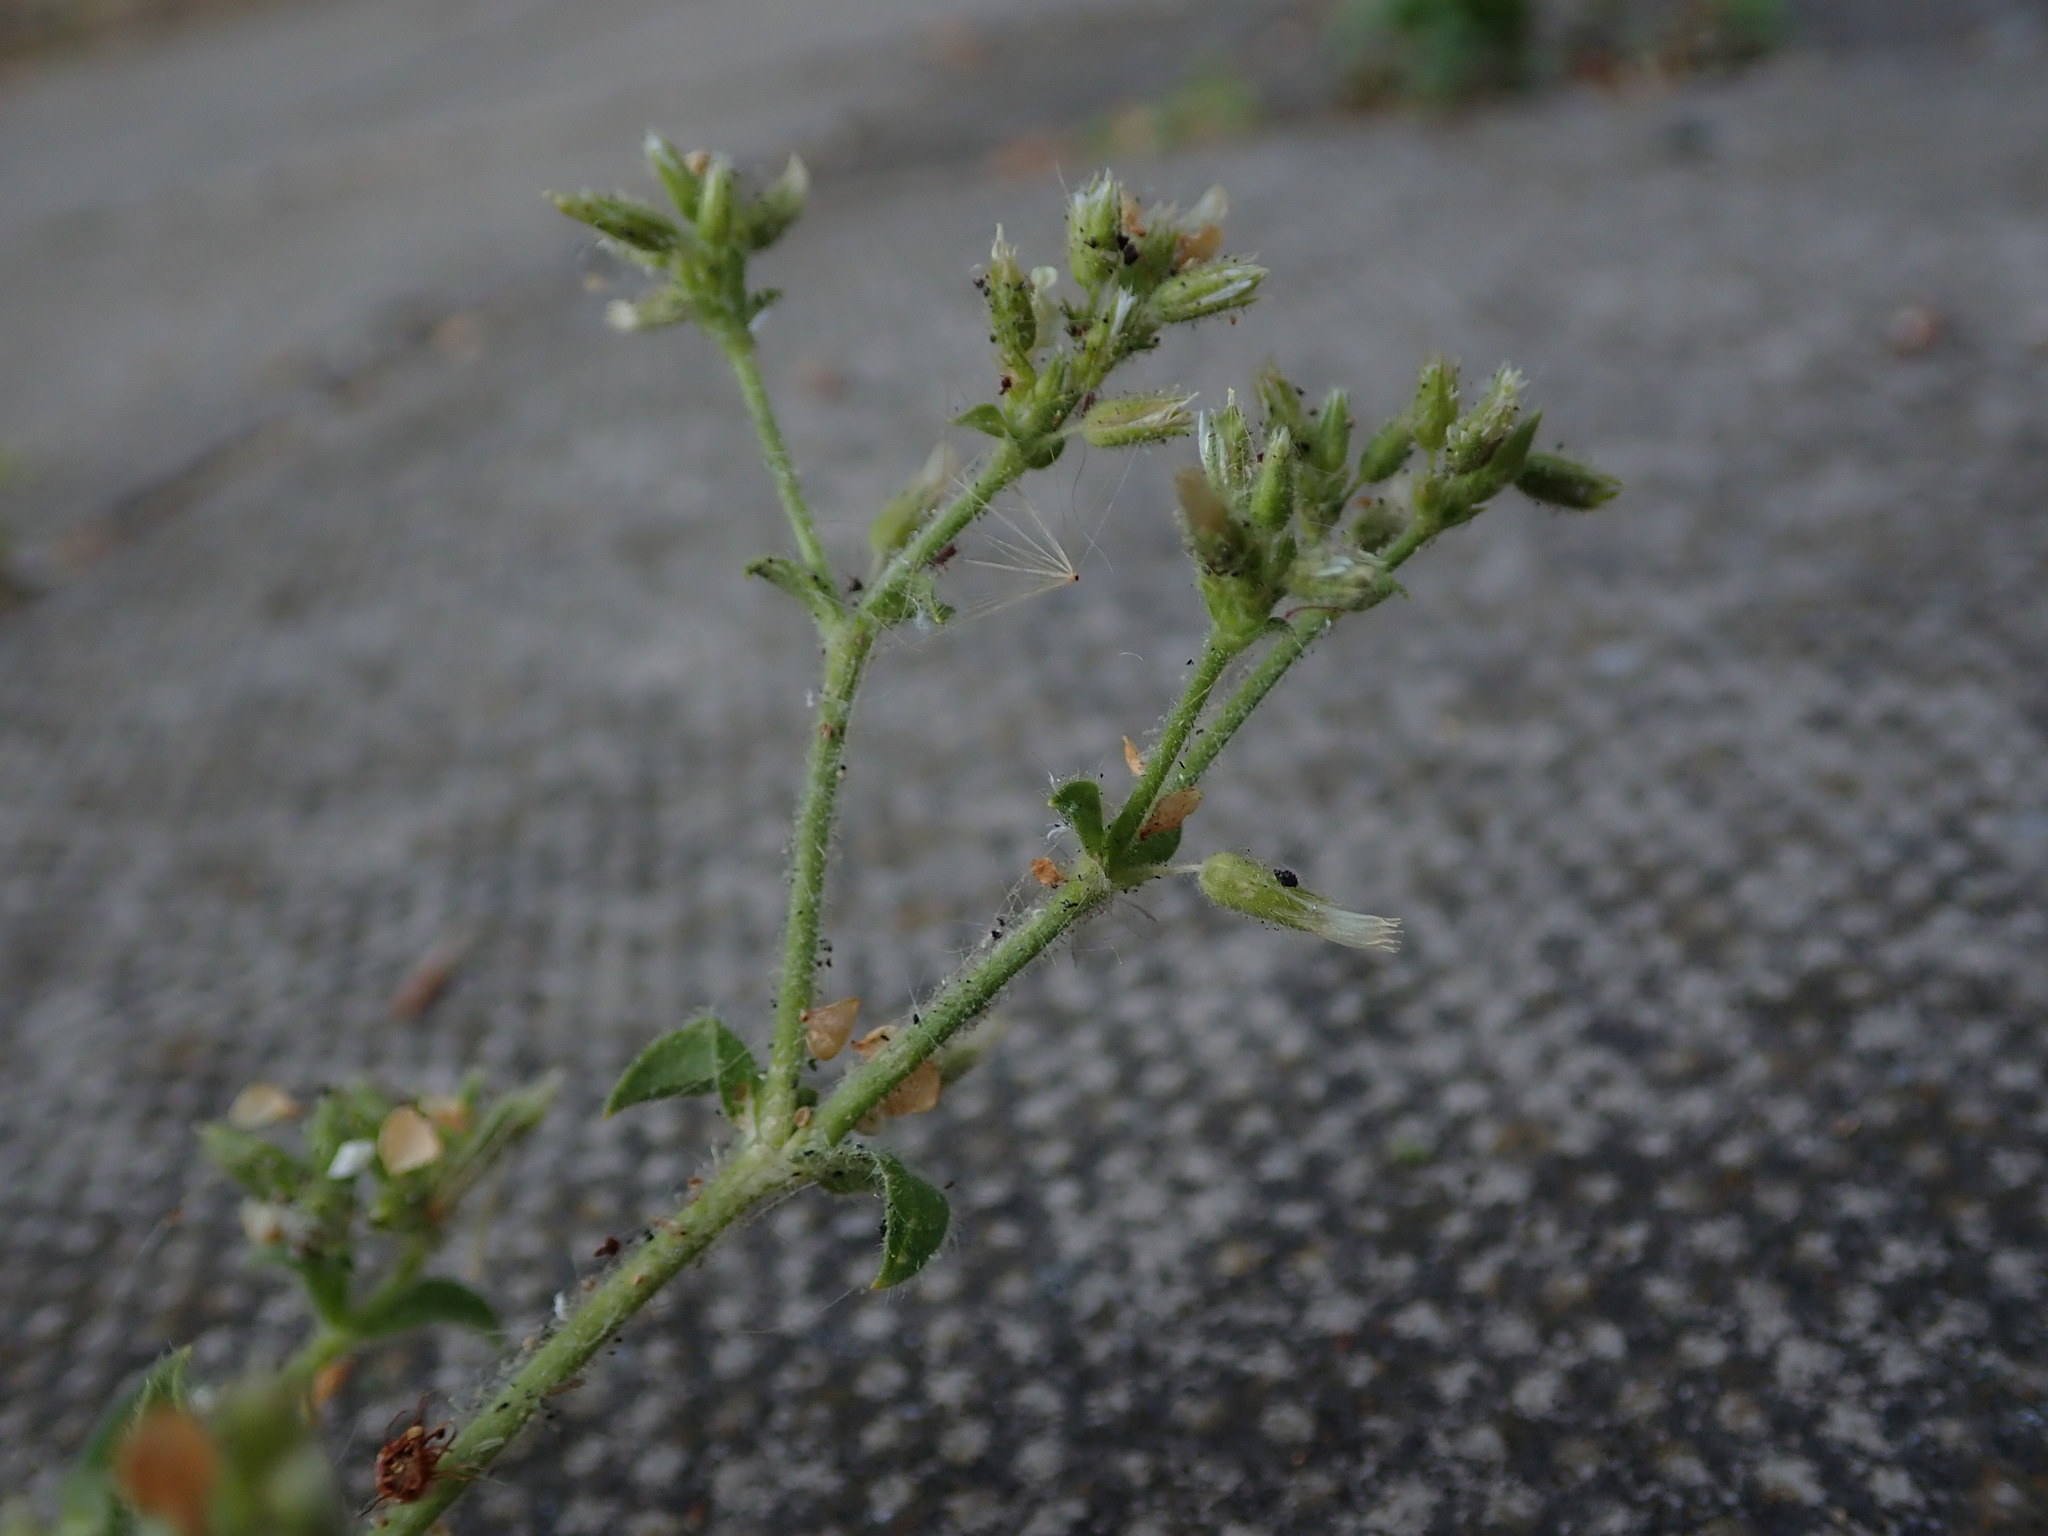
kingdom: Plantae
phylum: Tracheophyta
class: Magnoliopsida
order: Caryophyllales
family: Caryophyllaceae
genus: Cerastium
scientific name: Cerastium glomeratum
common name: Sticky chickweed
